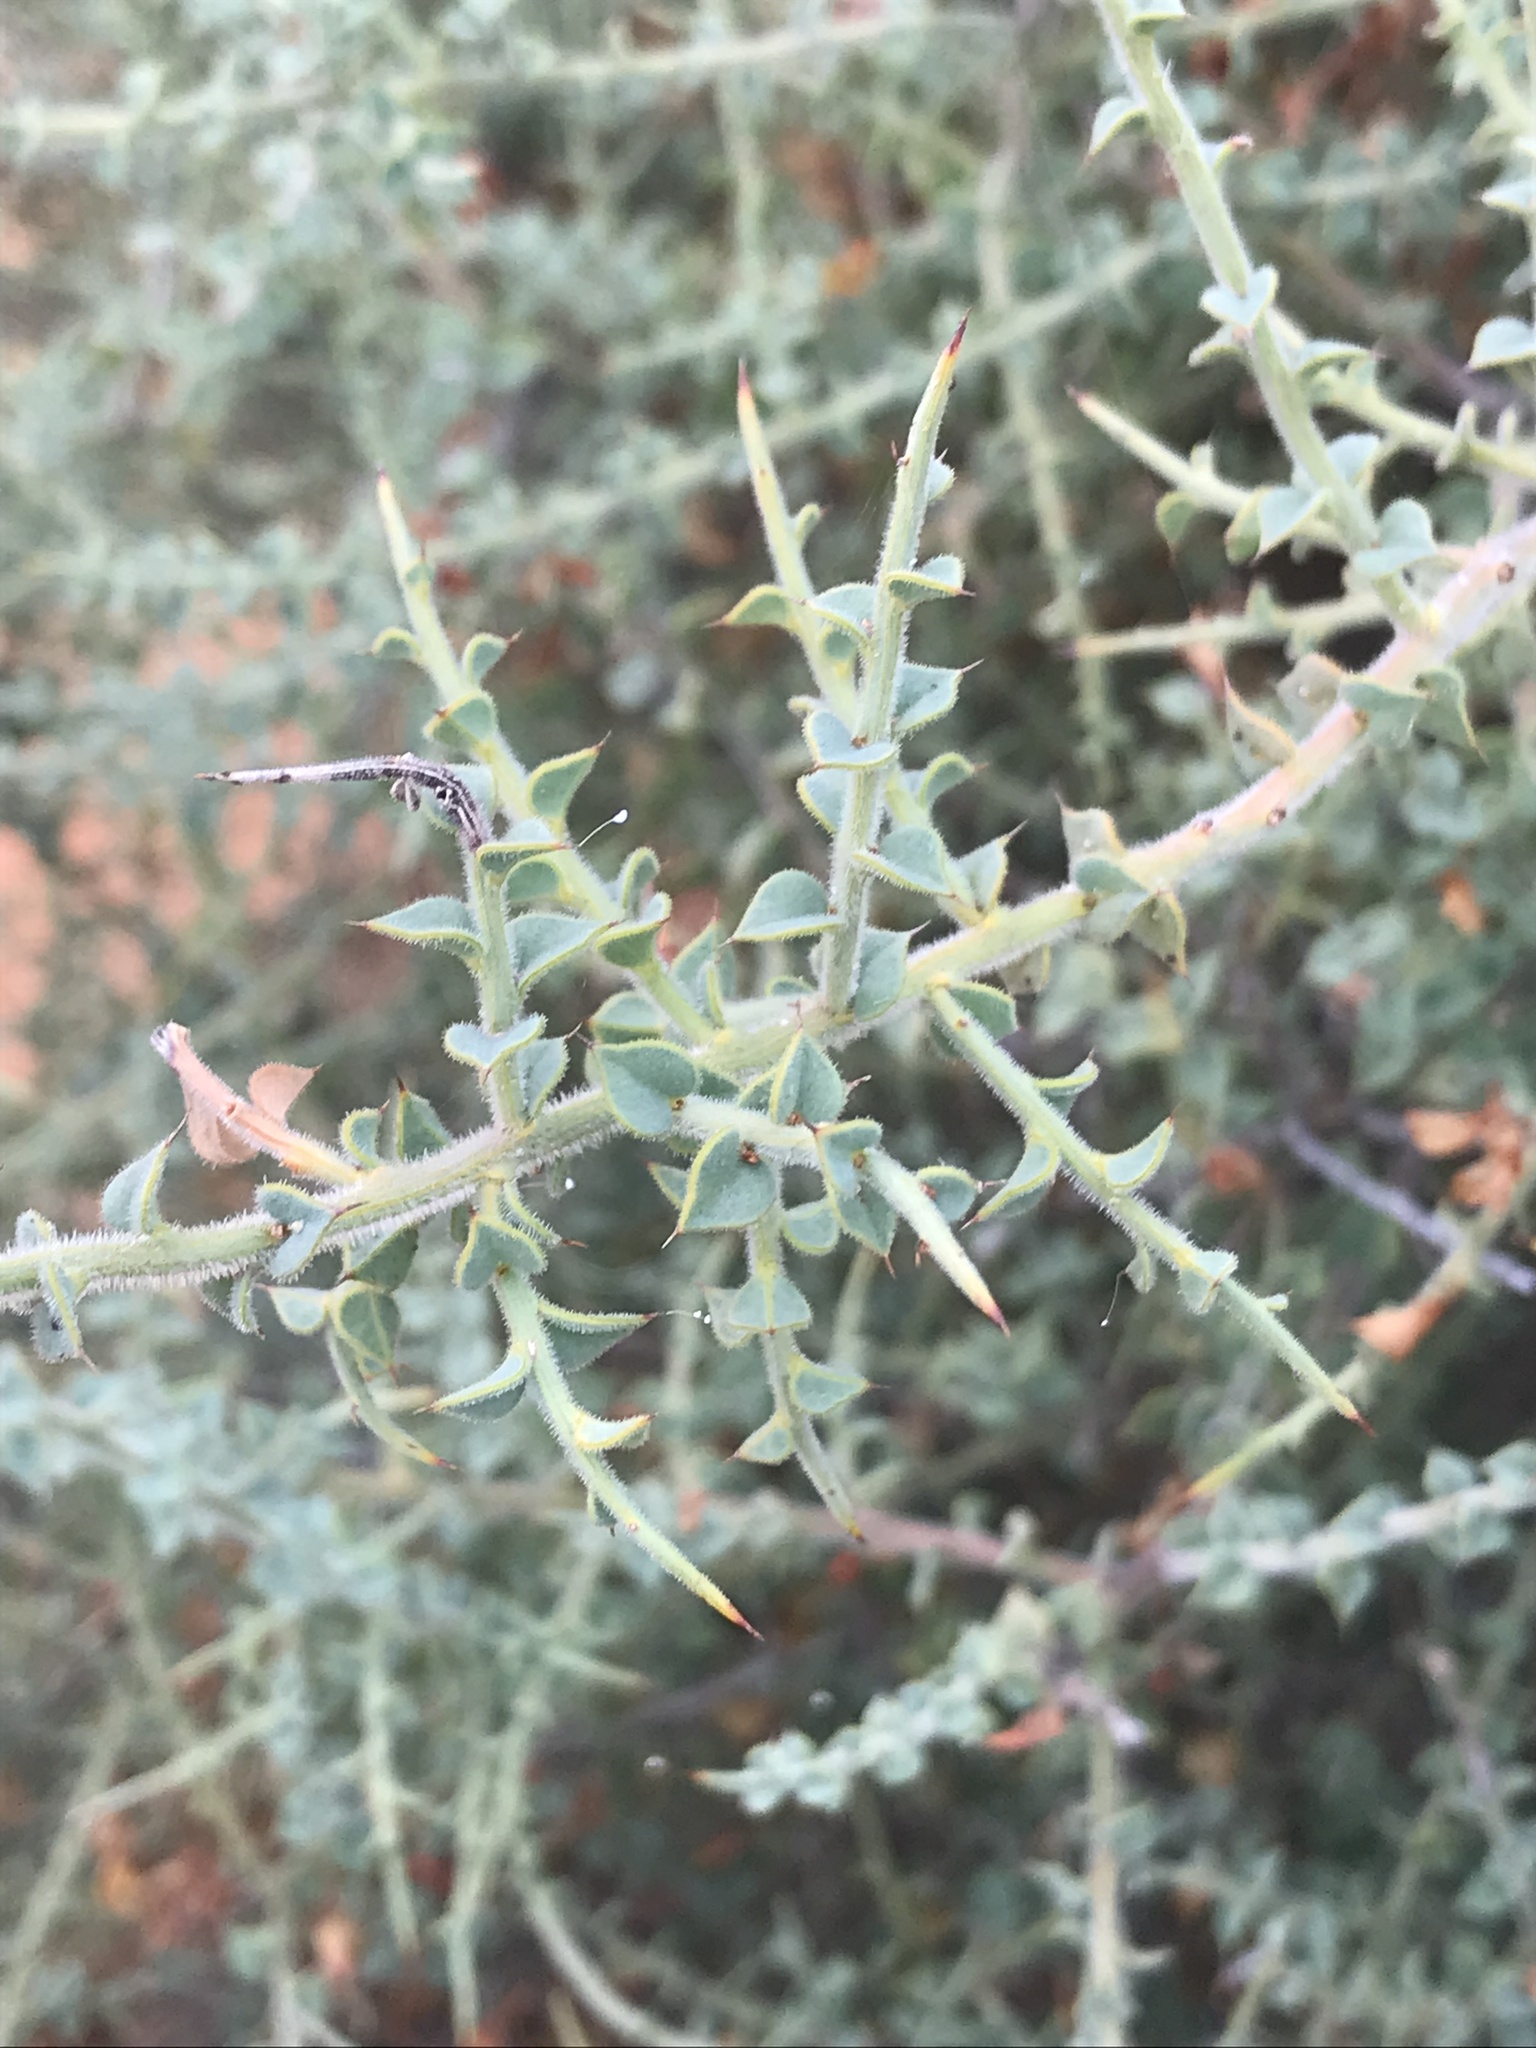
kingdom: Plantae
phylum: Tracheophyta
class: Magnoliopsida
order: Fabales
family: Fabaceae
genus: Daviesia
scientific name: Daviesia arenaria
